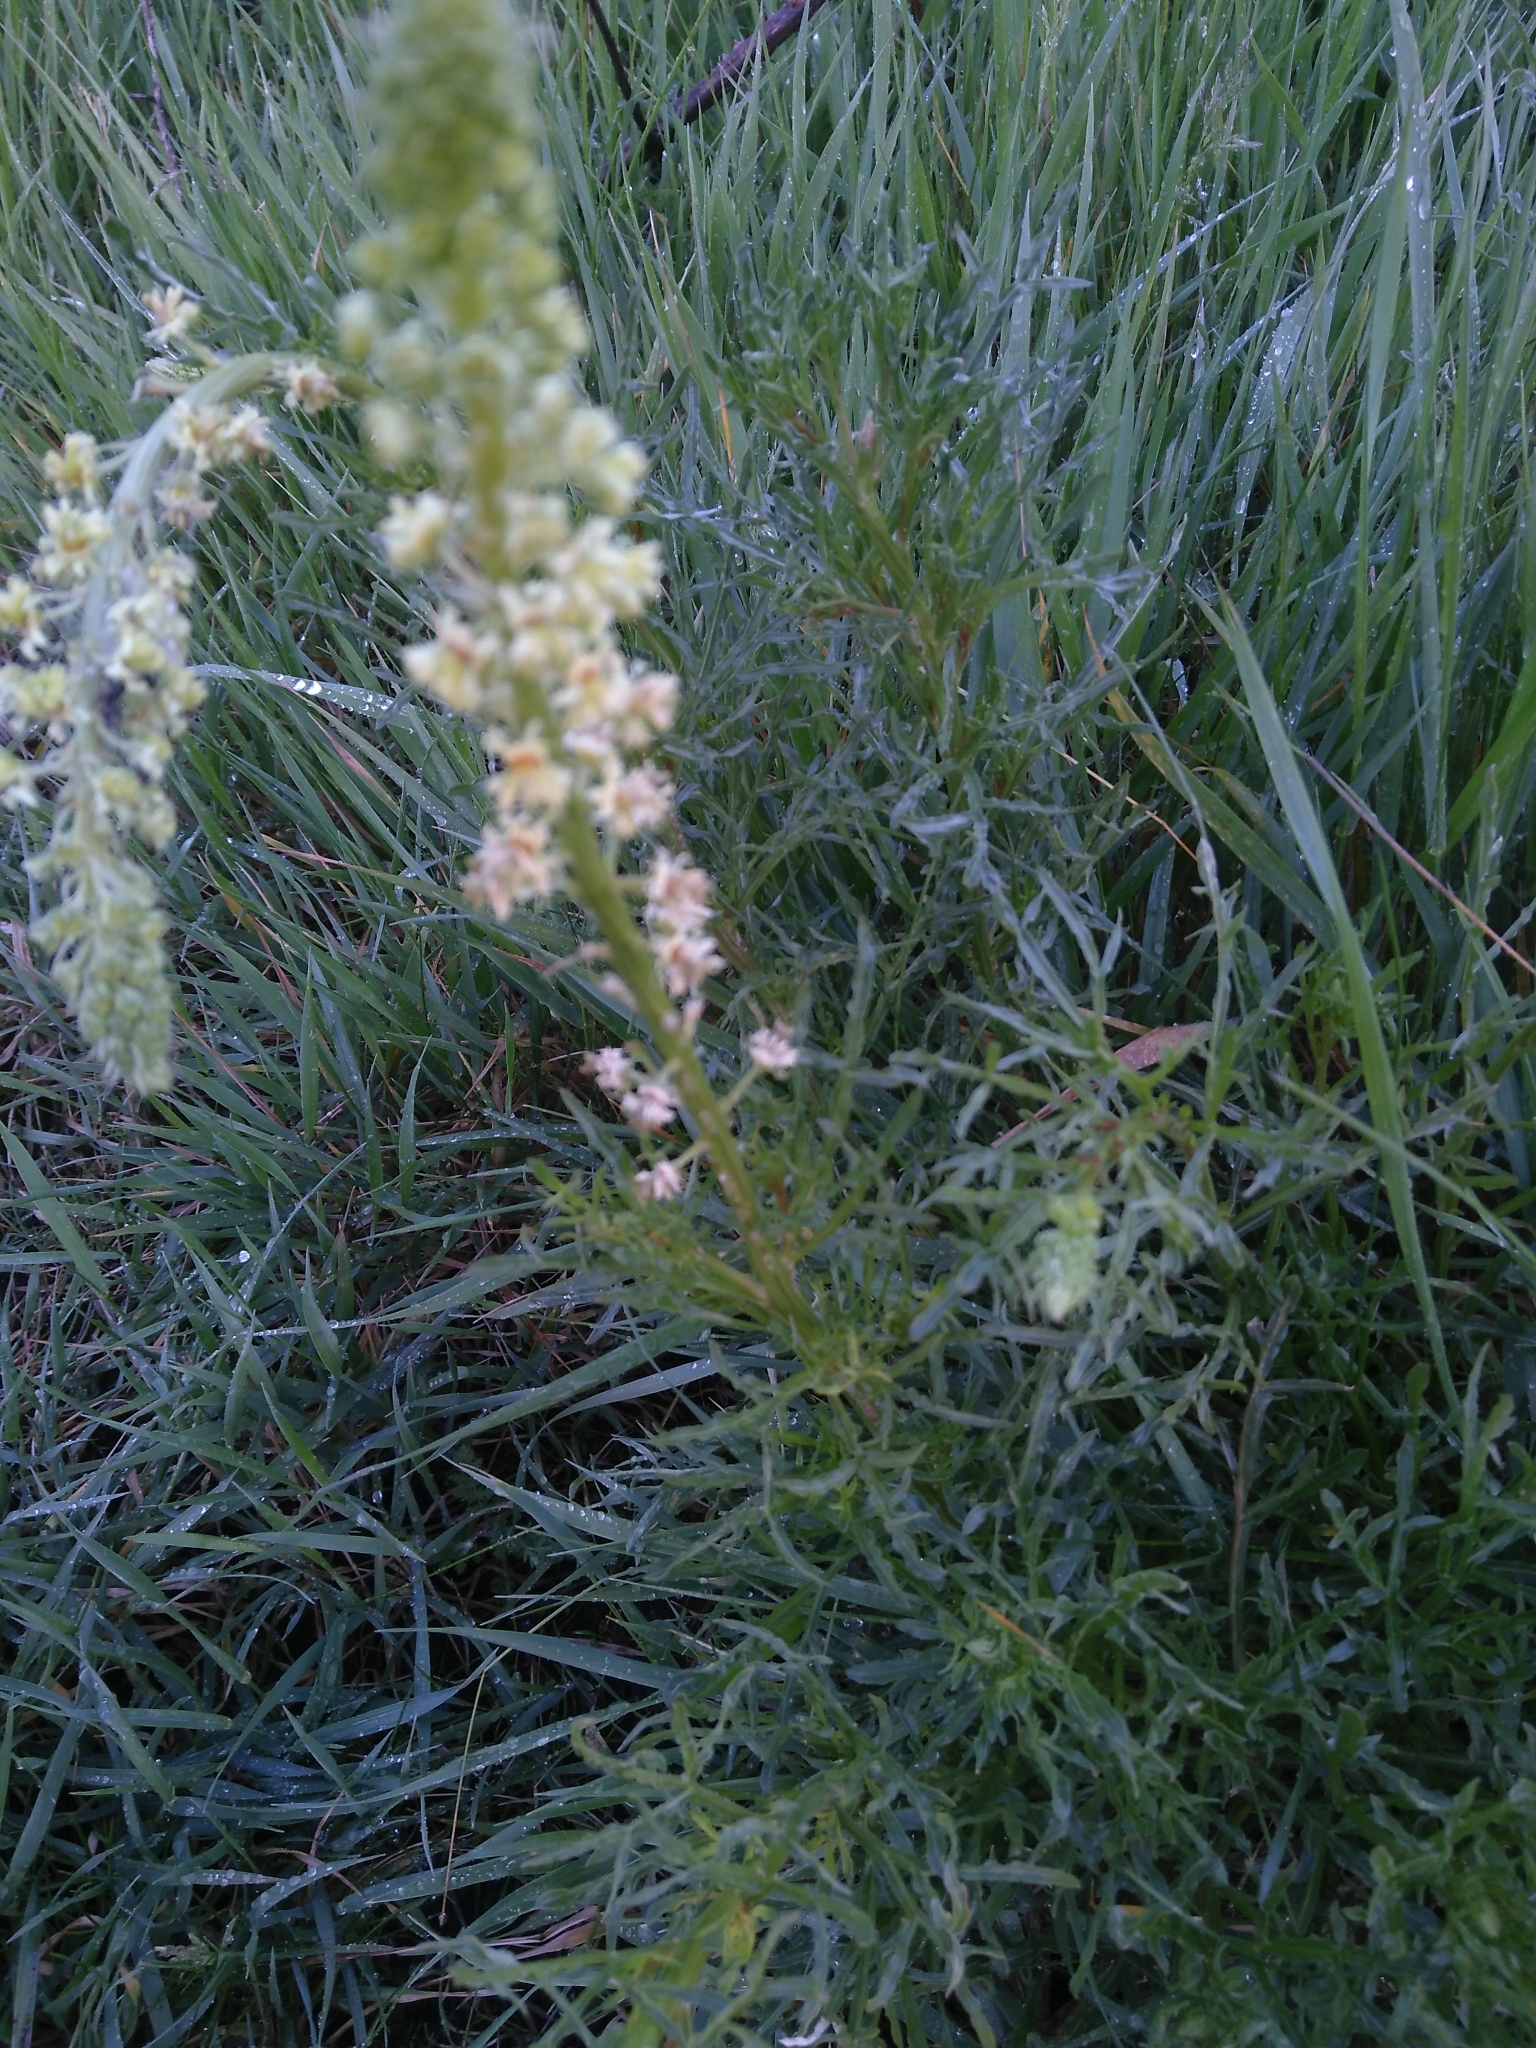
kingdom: Plantae
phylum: Tracheophyta
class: Magnoliopsida
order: Brassicales
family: Resedaceae
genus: Reseda
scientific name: Reseda lutea
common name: Wild mignonette
